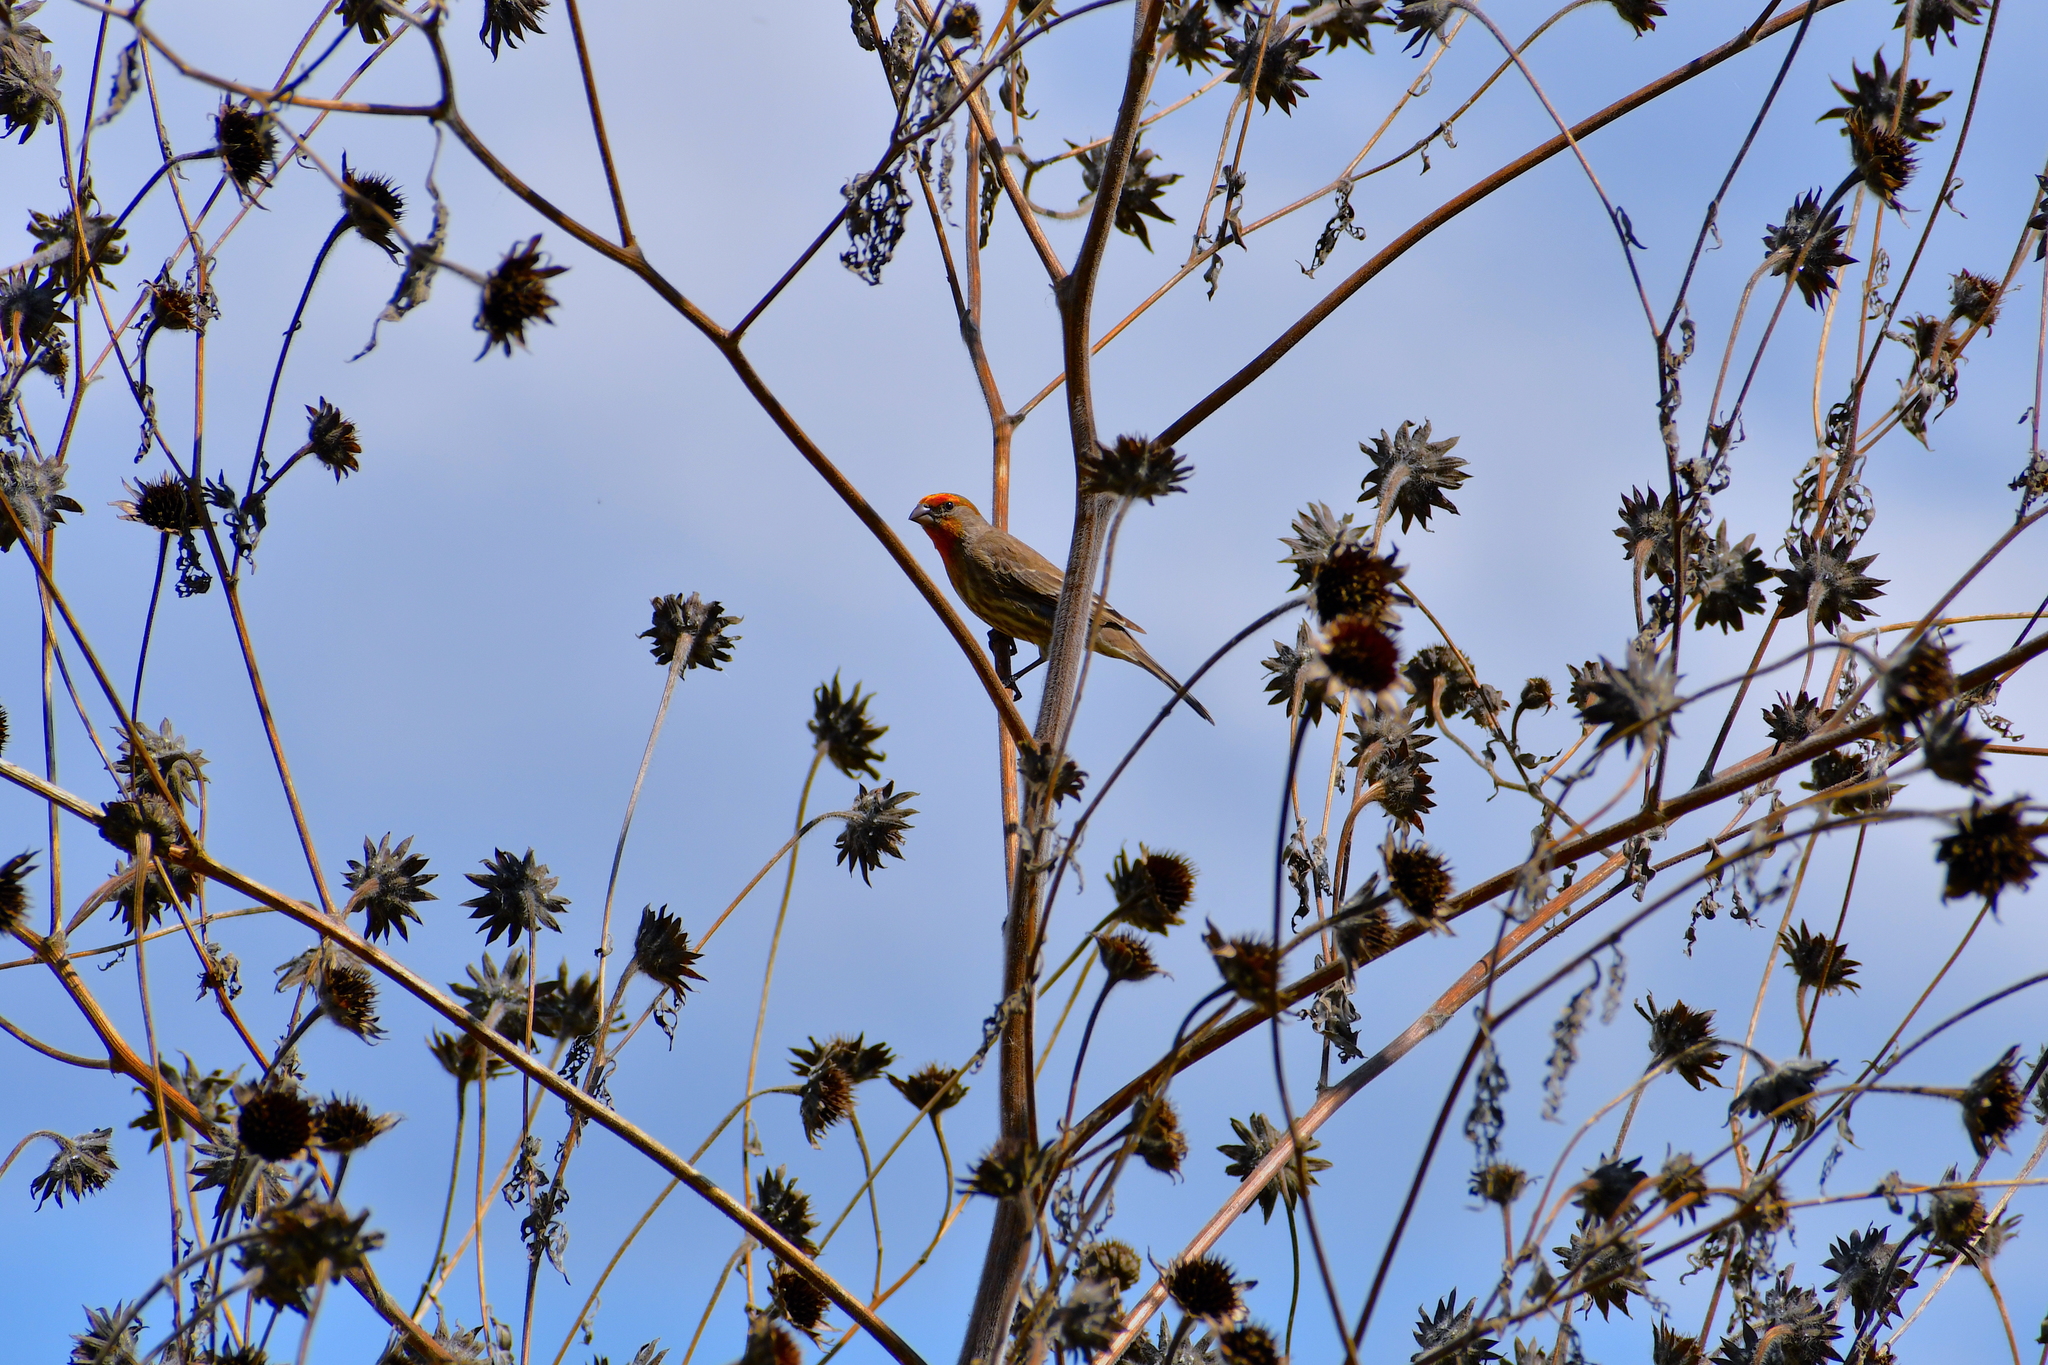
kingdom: Animalia
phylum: Chordata
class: Aves
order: Passeriformes
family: Fringillidae
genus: Haemorhous
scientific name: Haemorhous mexicanus
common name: House finch
